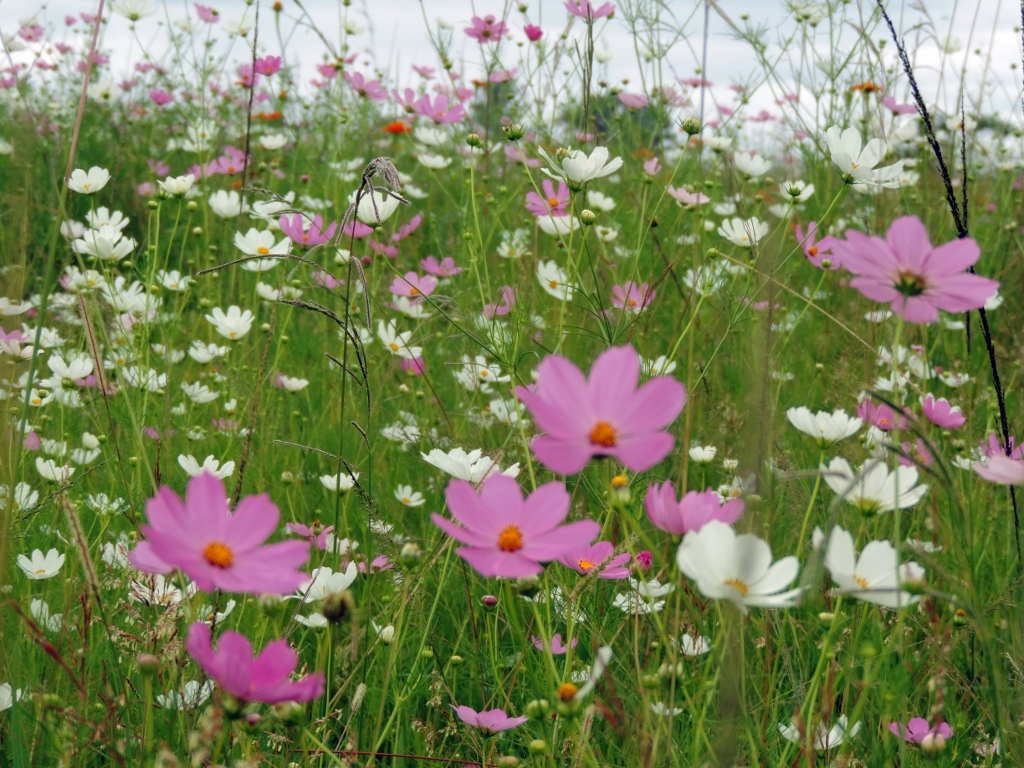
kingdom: Plantae
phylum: Tracheophyta
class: Magnoliopsida
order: Asterales
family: Asteraceae
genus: Cosmos
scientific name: Cosmos bipinnatus
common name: Garden cosmos
